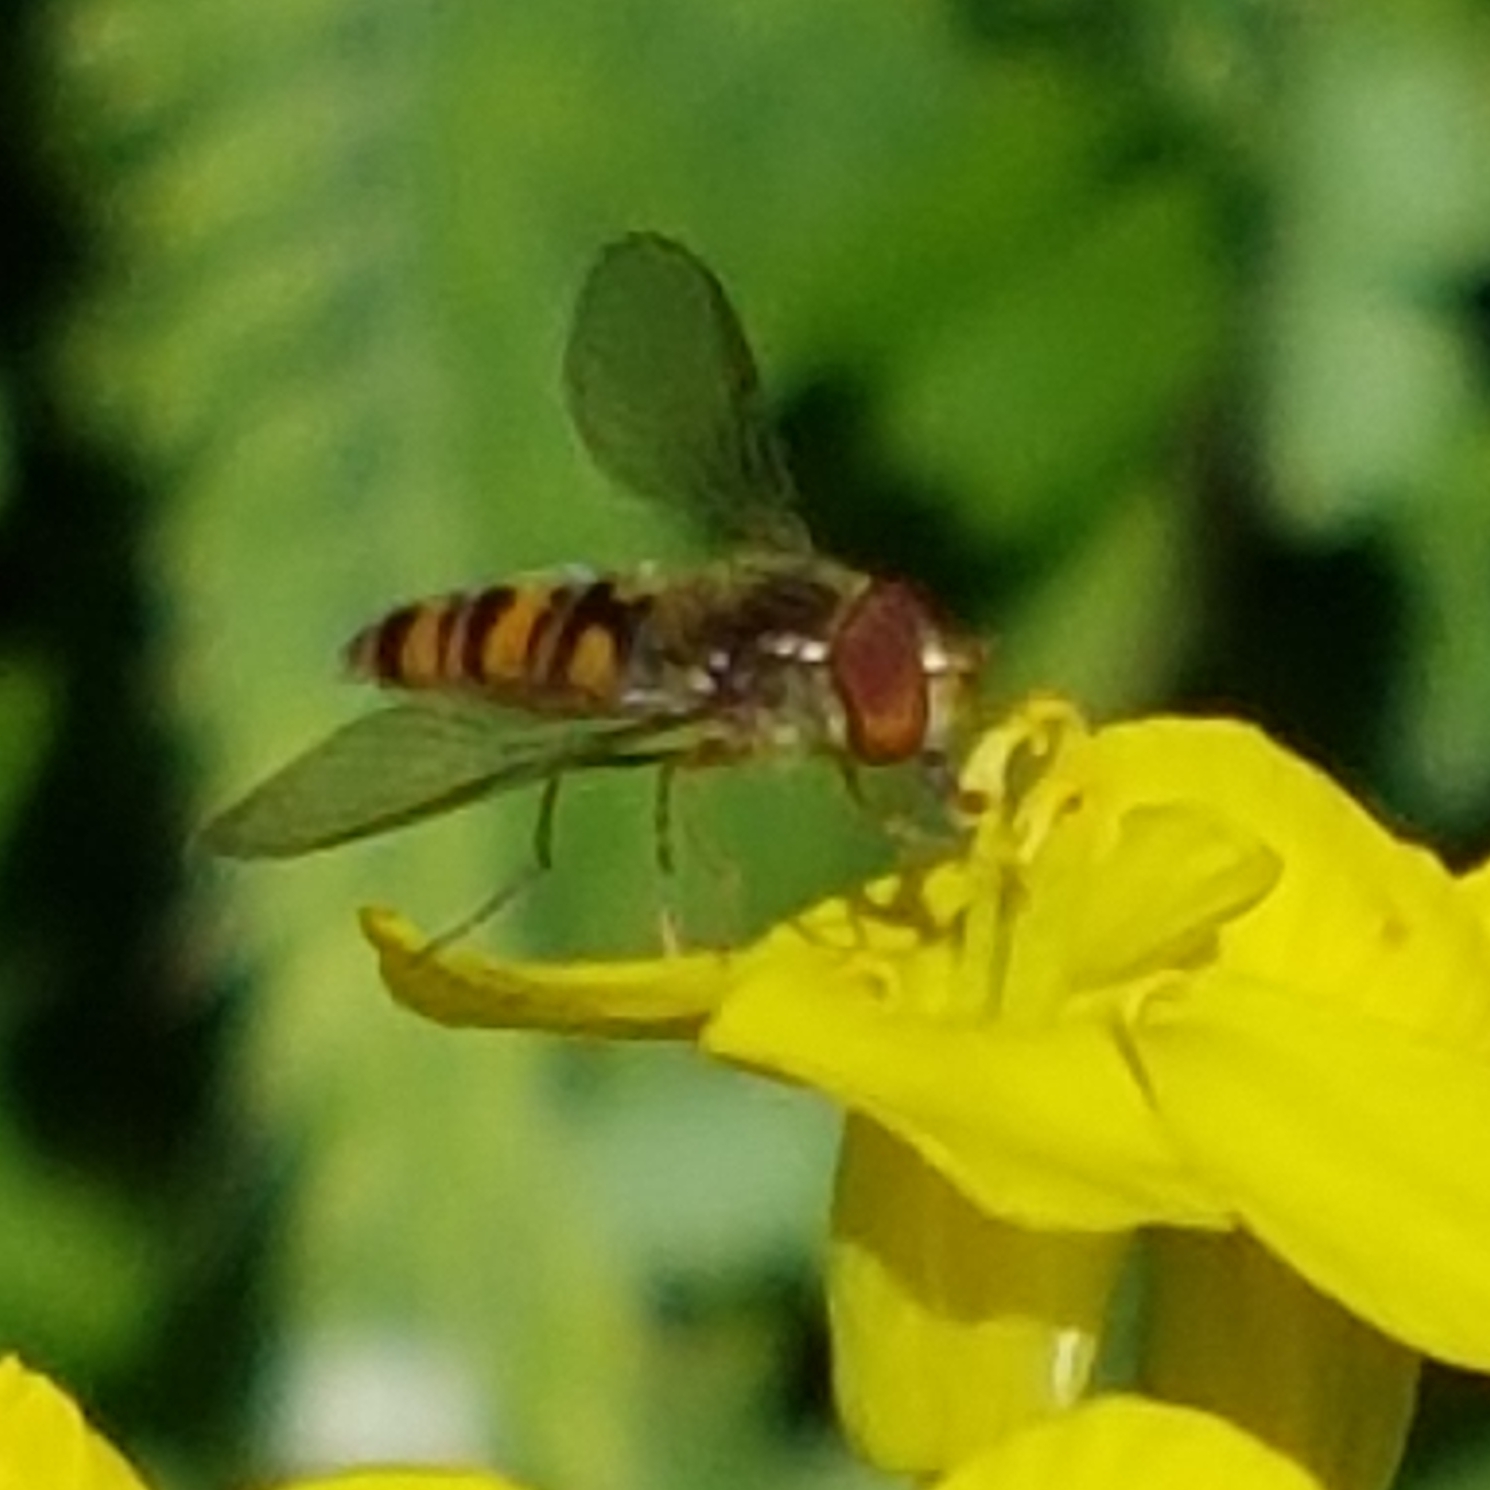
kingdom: Animalia
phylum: Arthropoda
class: Insecta
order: Diptera
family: Syrphidae
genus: Episyrphus
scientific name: Episyrphus balteatus
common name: Marmalade hoverfly
